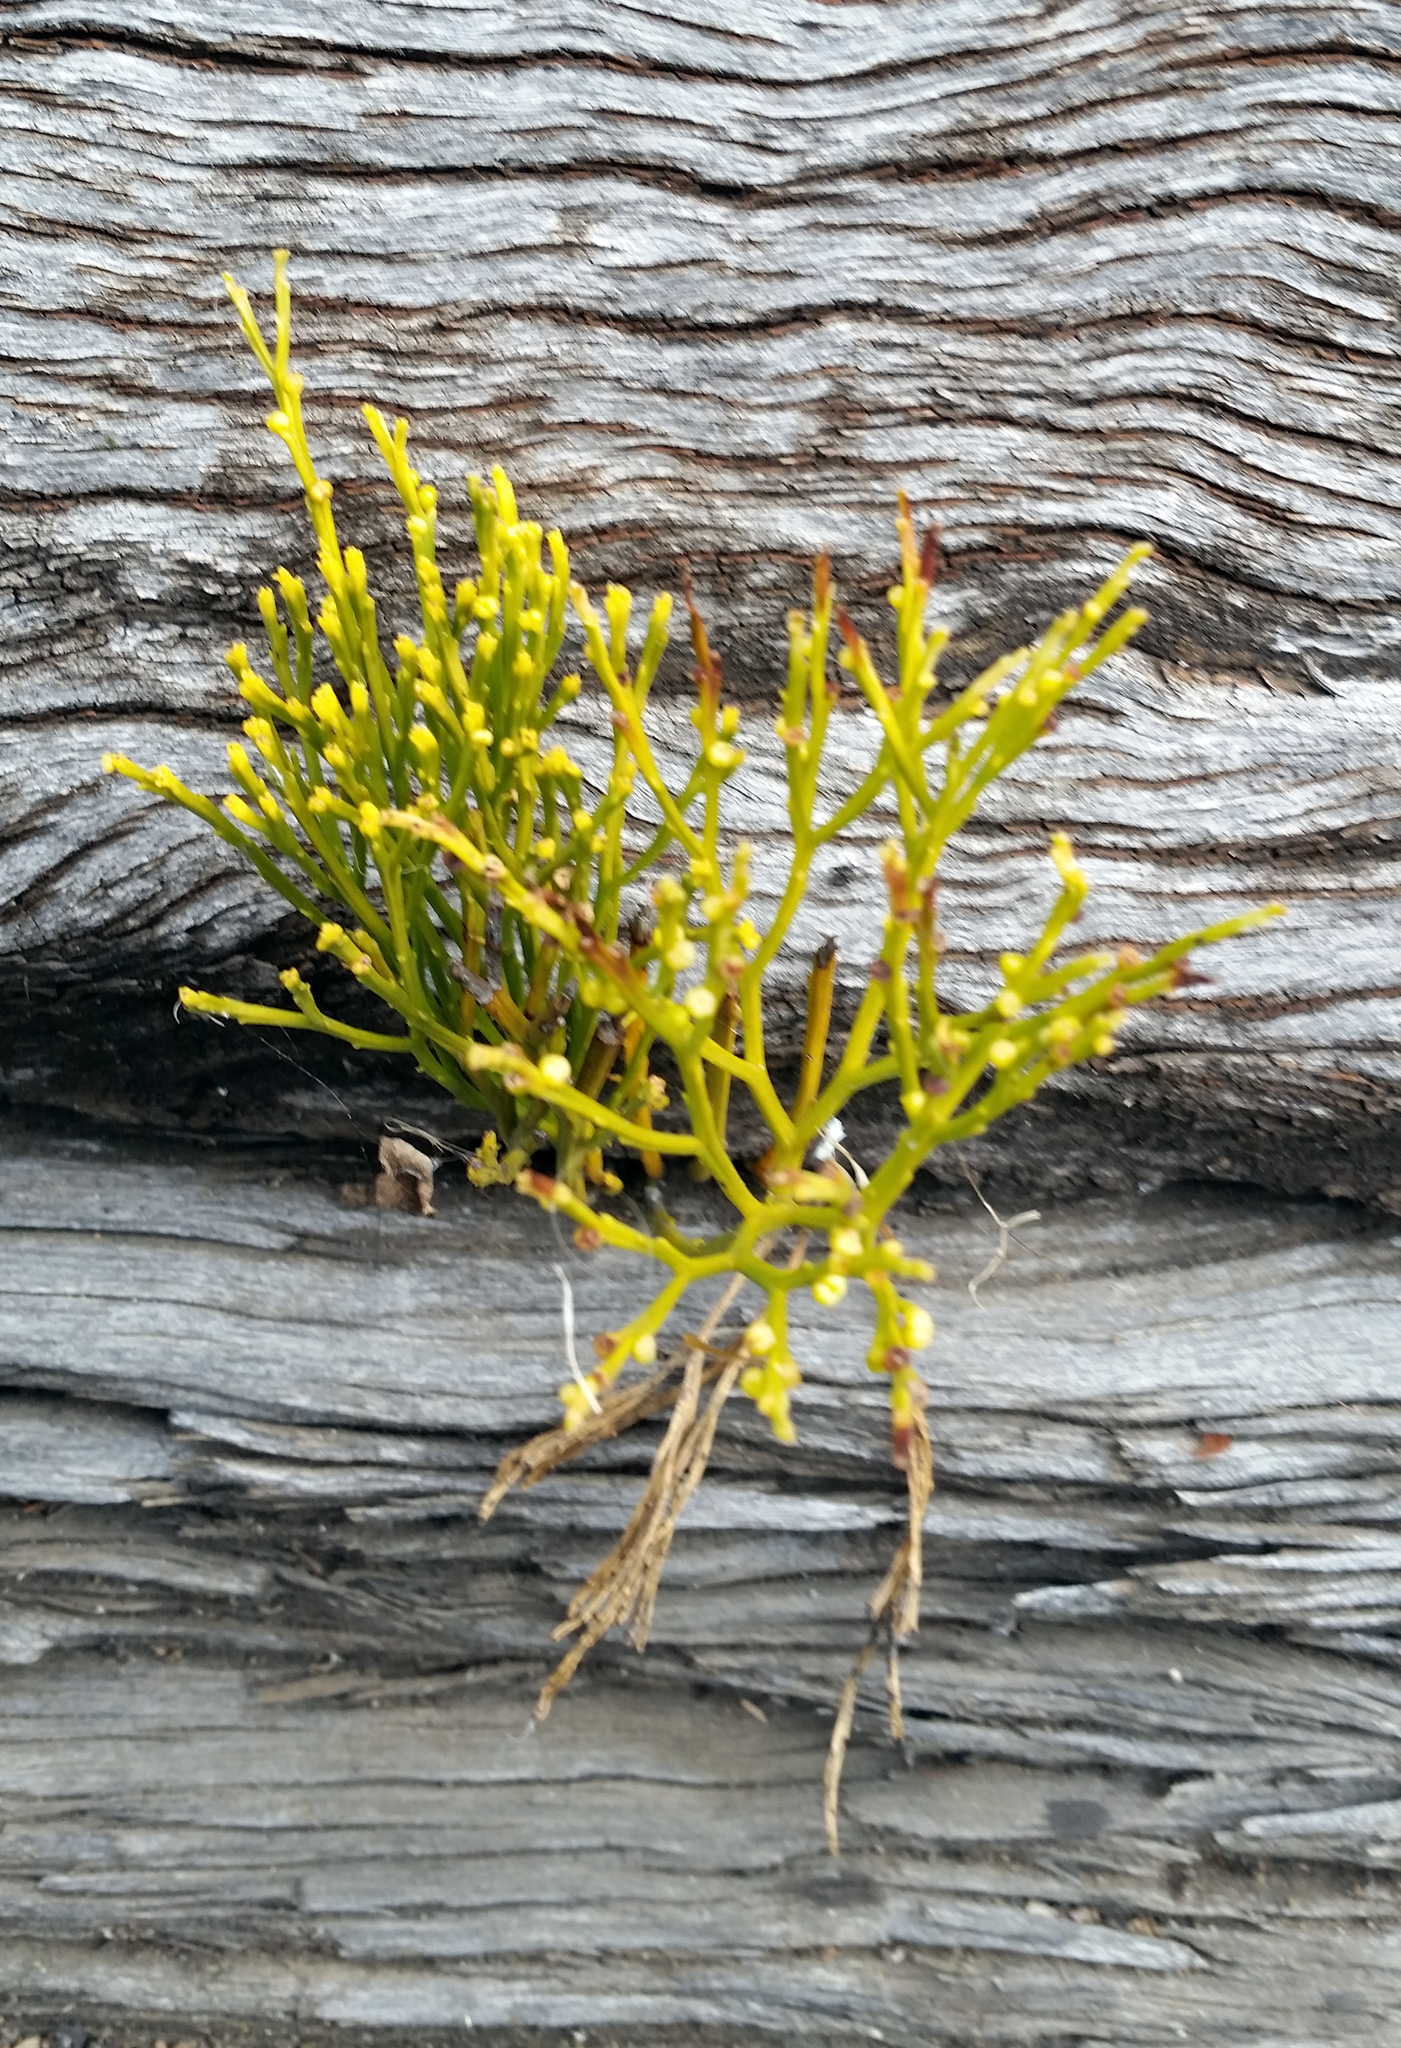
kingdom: Plantae
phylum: Tracheophyta
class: Polypodiopsida
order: Psilotales
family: Psilotaceae
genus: Psilotum
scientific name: Psilotum nudum
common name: Skeleton fork fern
